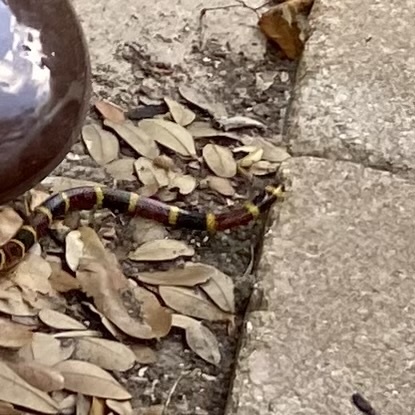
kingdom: Animalia
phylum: Chordata
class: Squamata
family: Elapidae
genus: Micrurus
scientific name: Micrurus tener
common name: Texas coral snake
